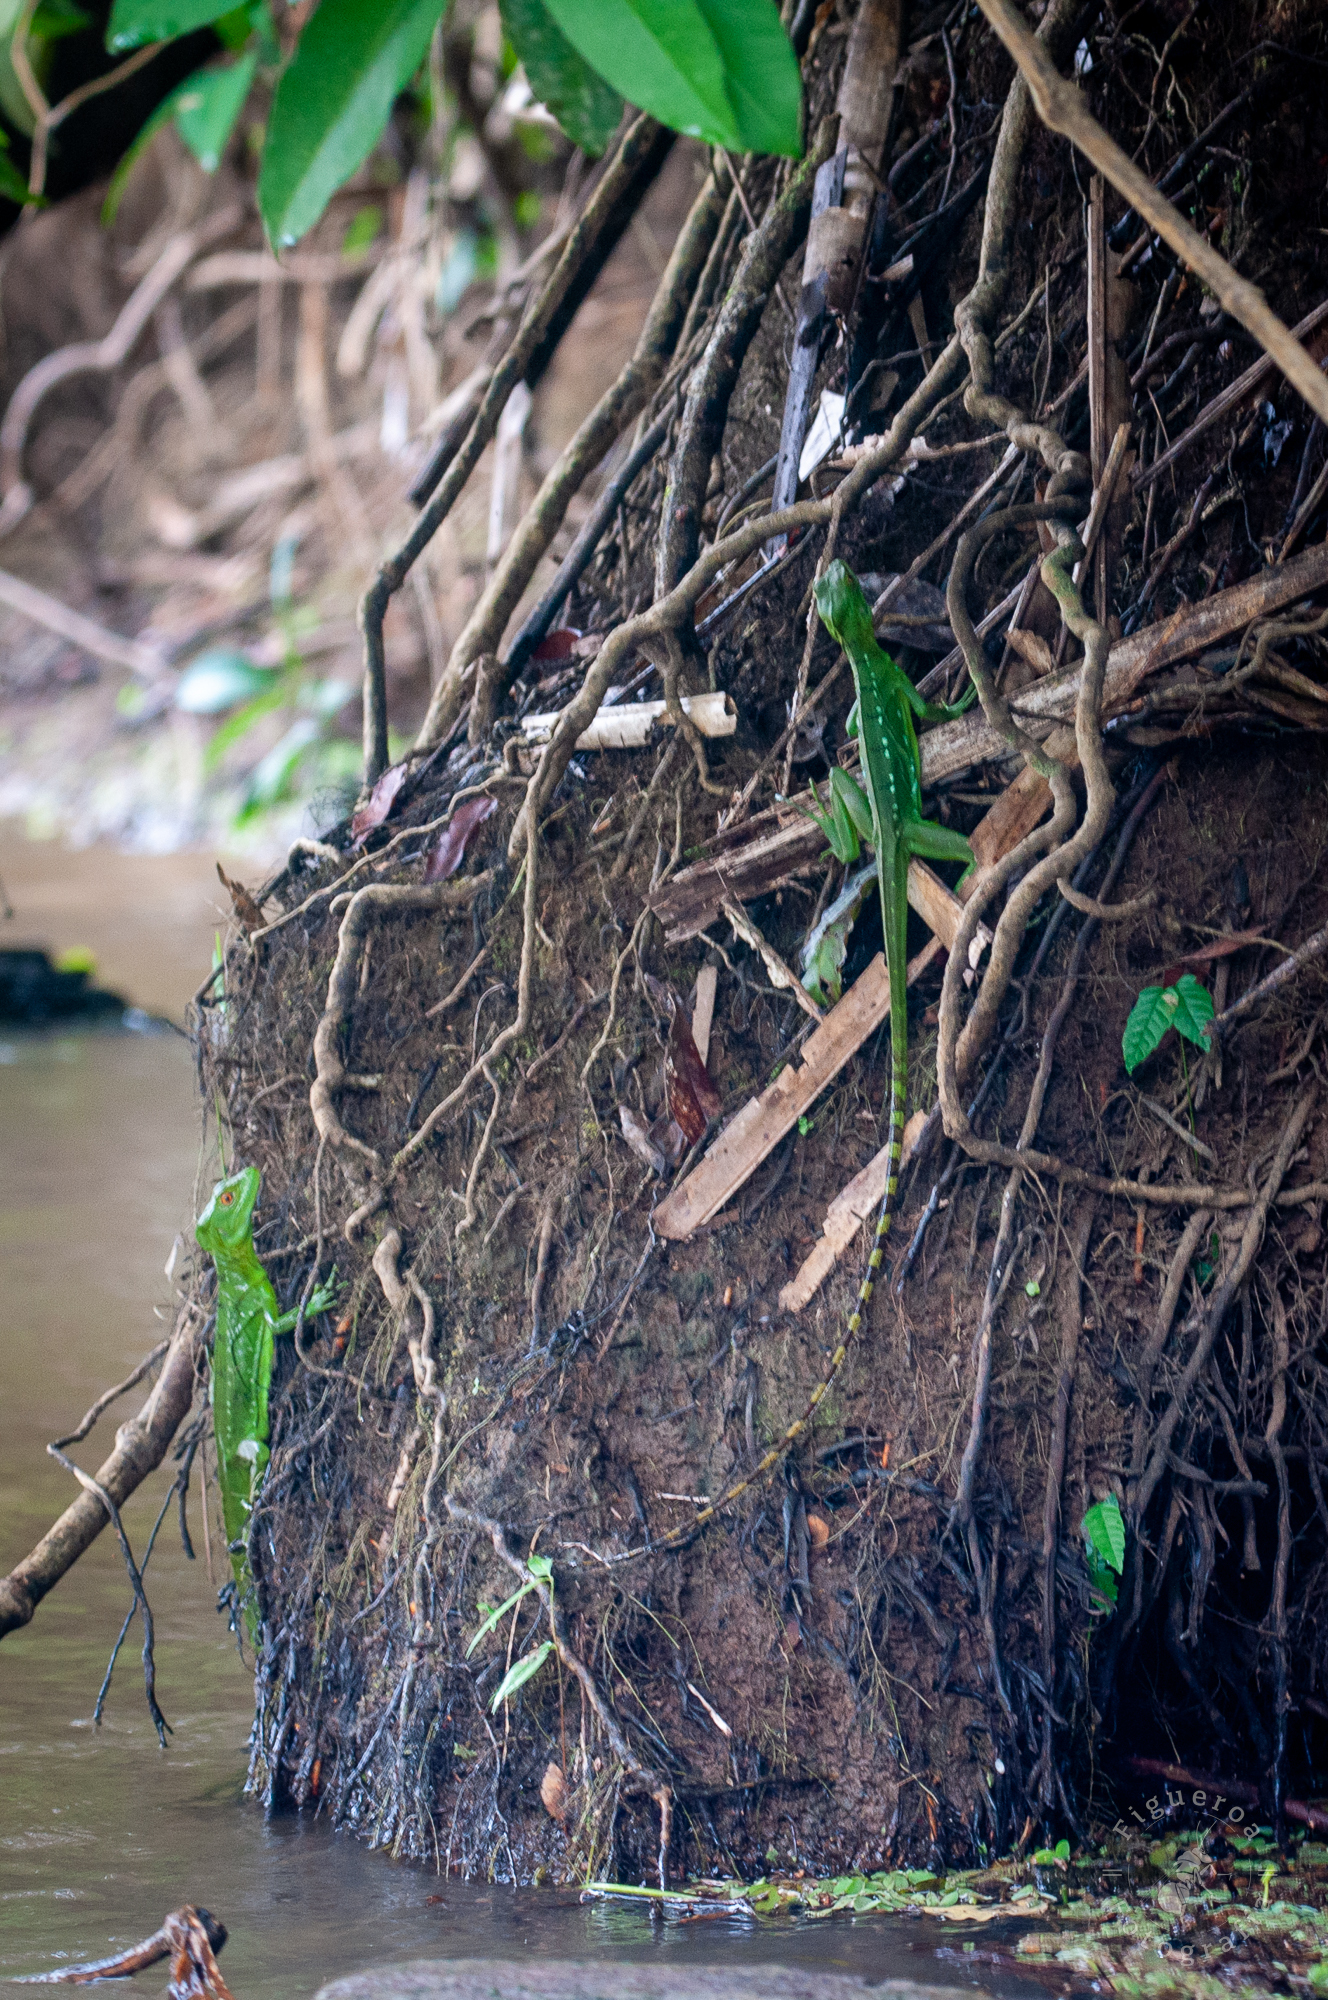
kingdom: Animalia
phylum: Chordata
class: Squamata
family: Corytophanidae
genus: Basiliscus
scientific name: Basiliscus plumifrons
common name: Green basilisk
